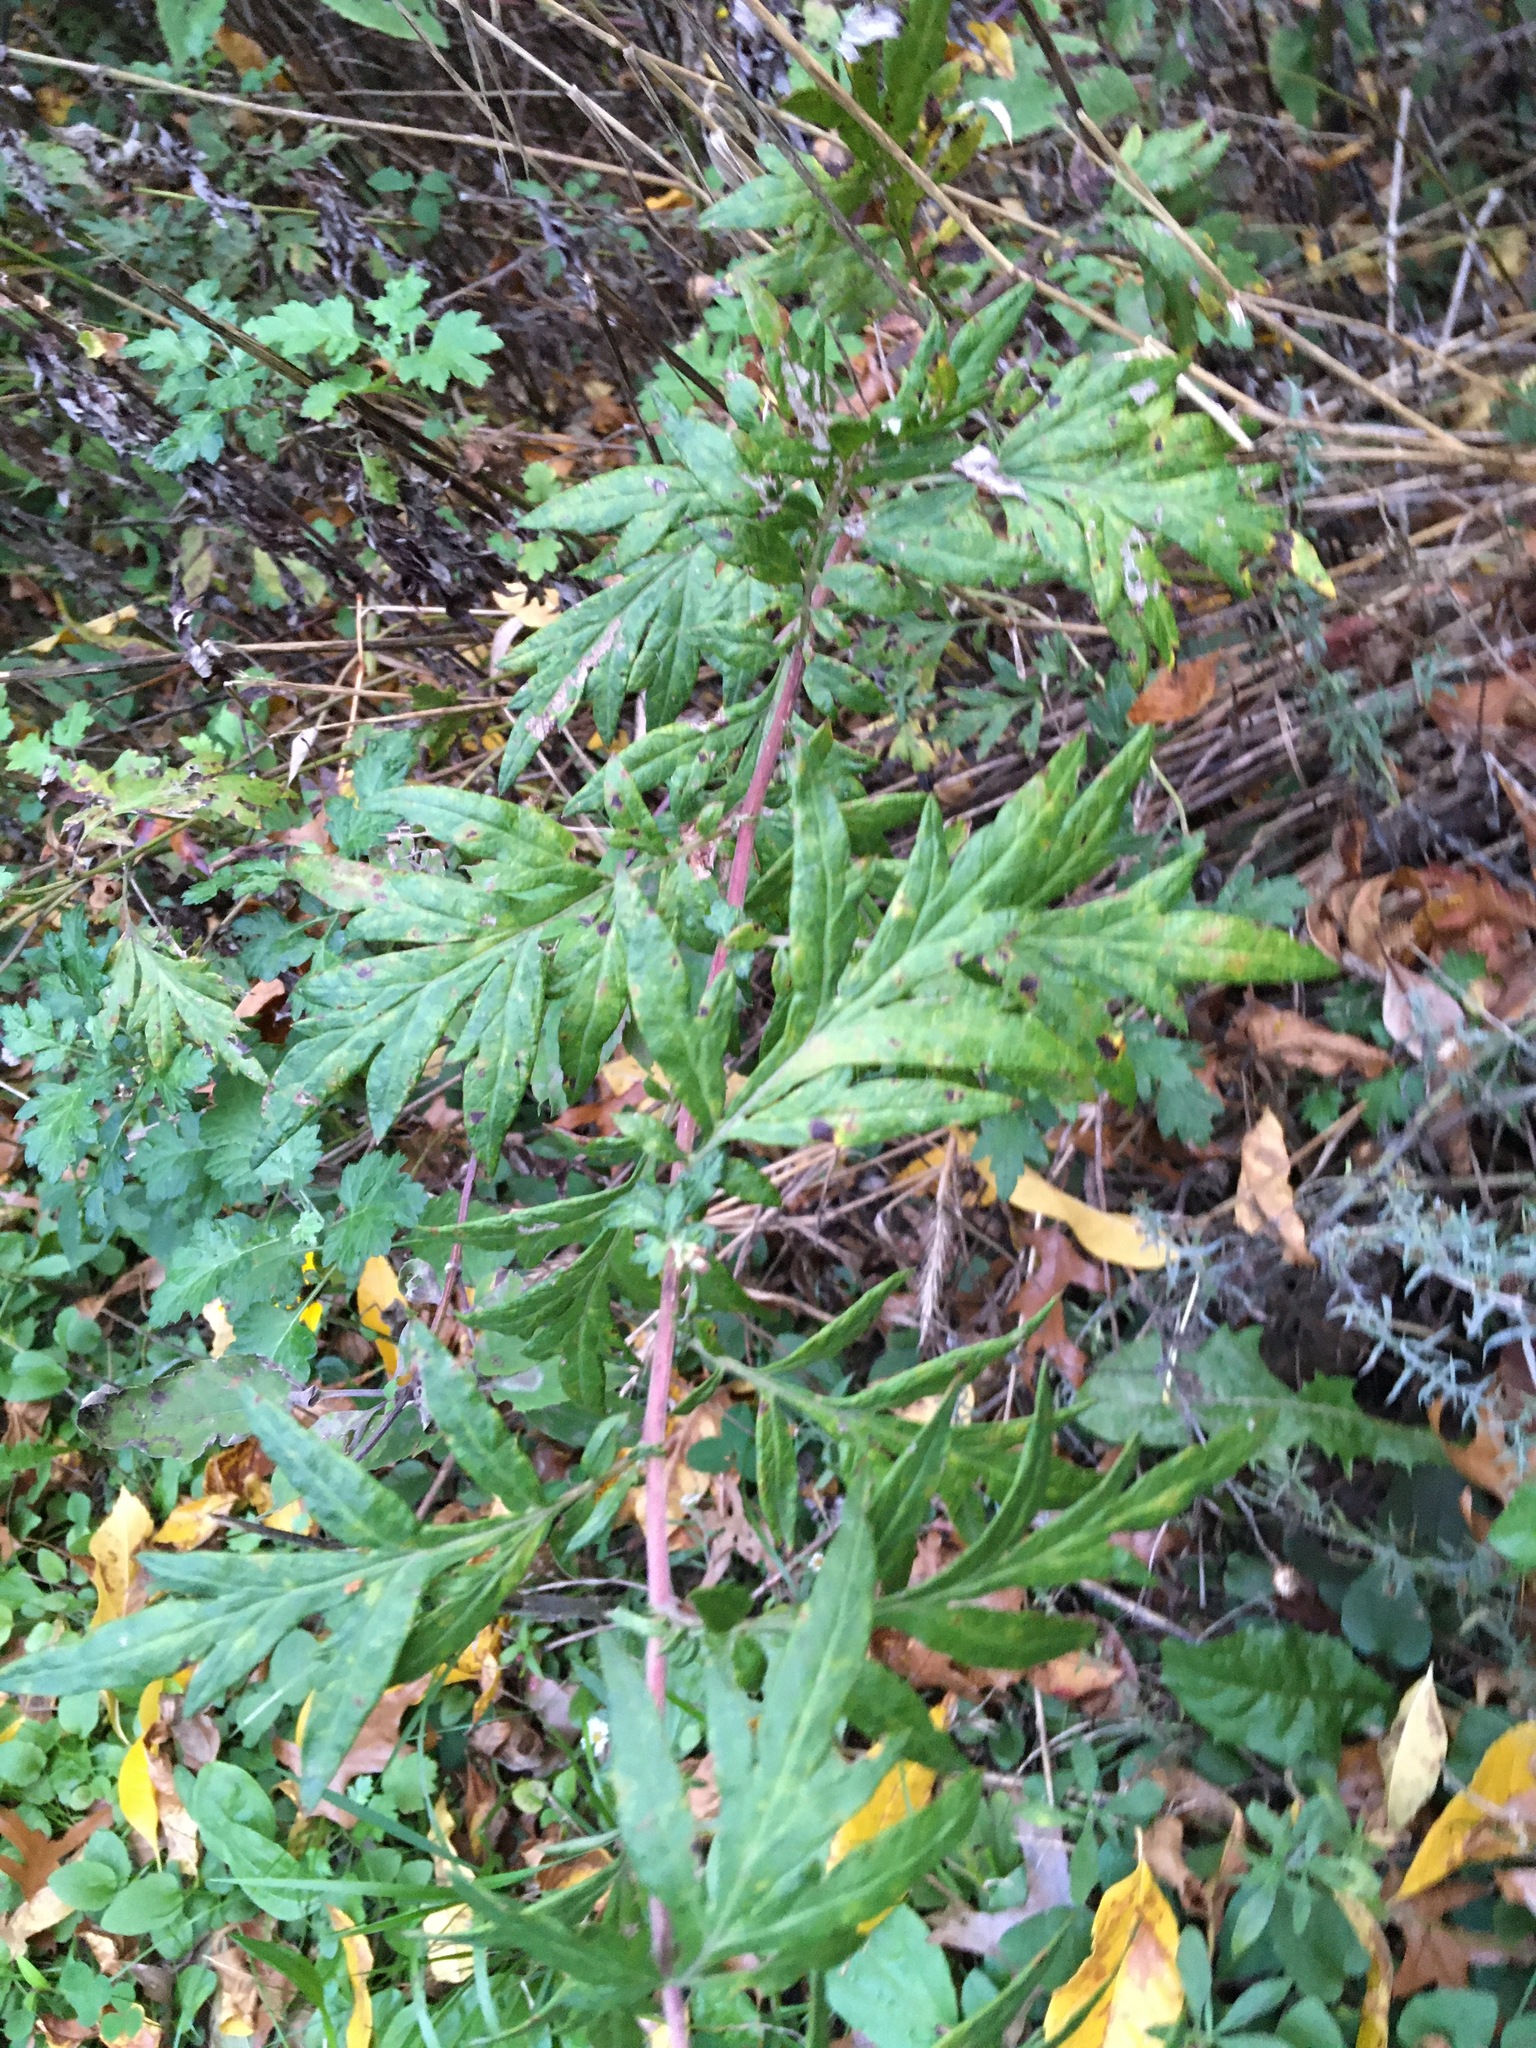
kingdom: Plantae
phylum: Tracheophyta
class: Magnoliopsida
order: Asterales
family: Asteraceae
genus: Artemisia
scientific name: Artemisia vulgaris
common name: Mugwort
